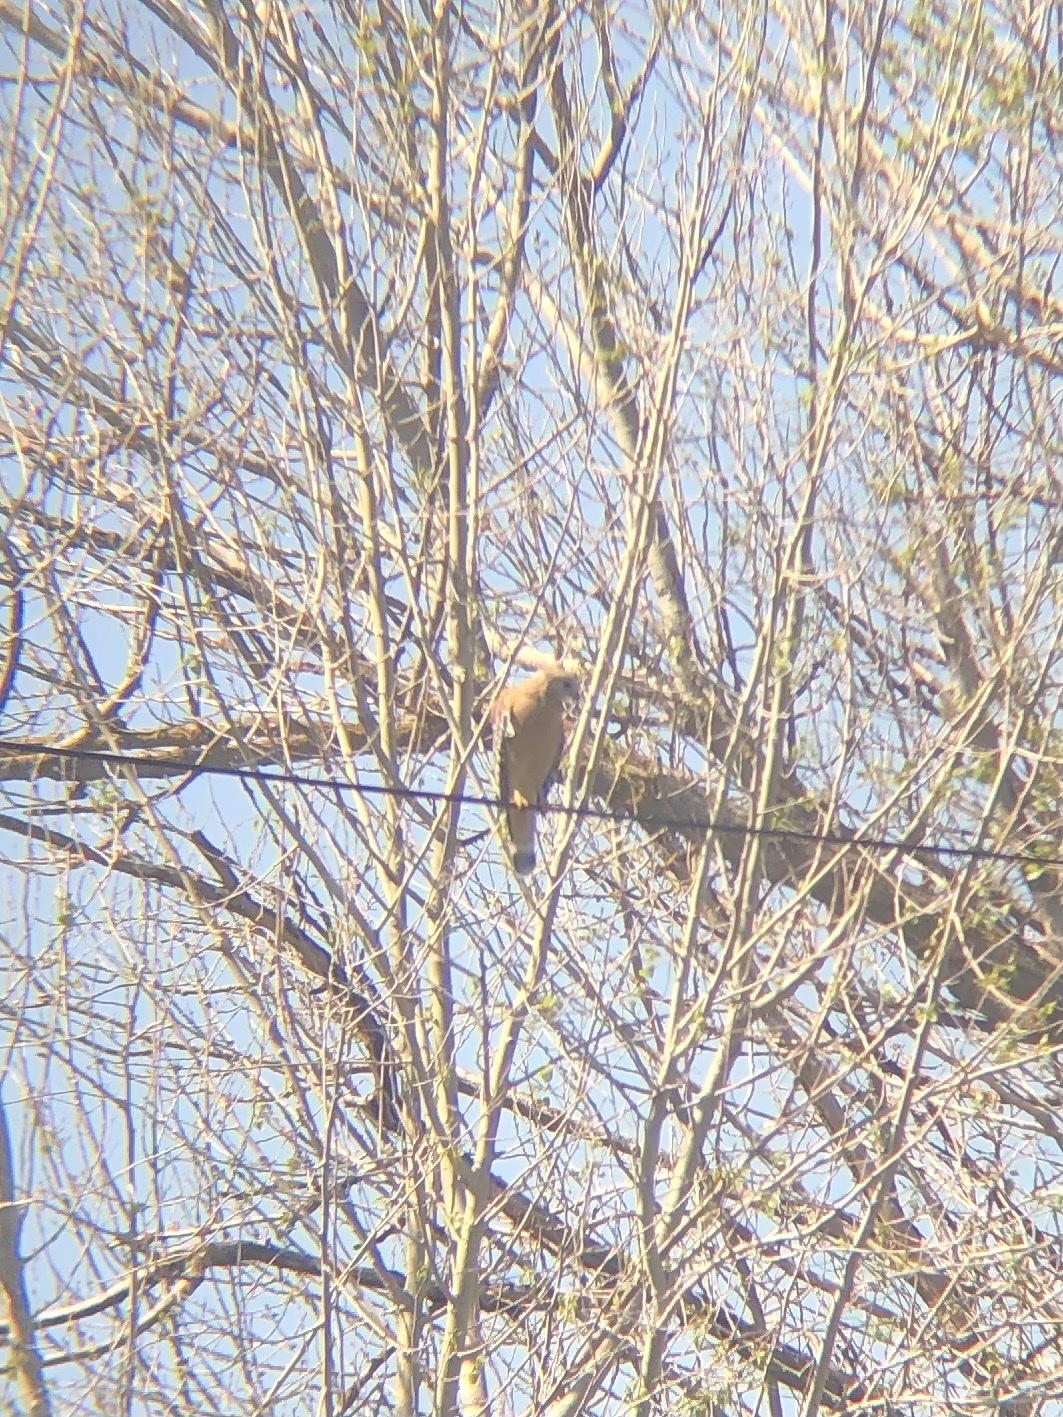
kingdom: Animalia
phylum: Chordata
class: Aves
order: Accipitriformes
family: Accipitridae
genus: Buteo
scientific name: Buteo lineatus
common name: Red-shouldered hawk
